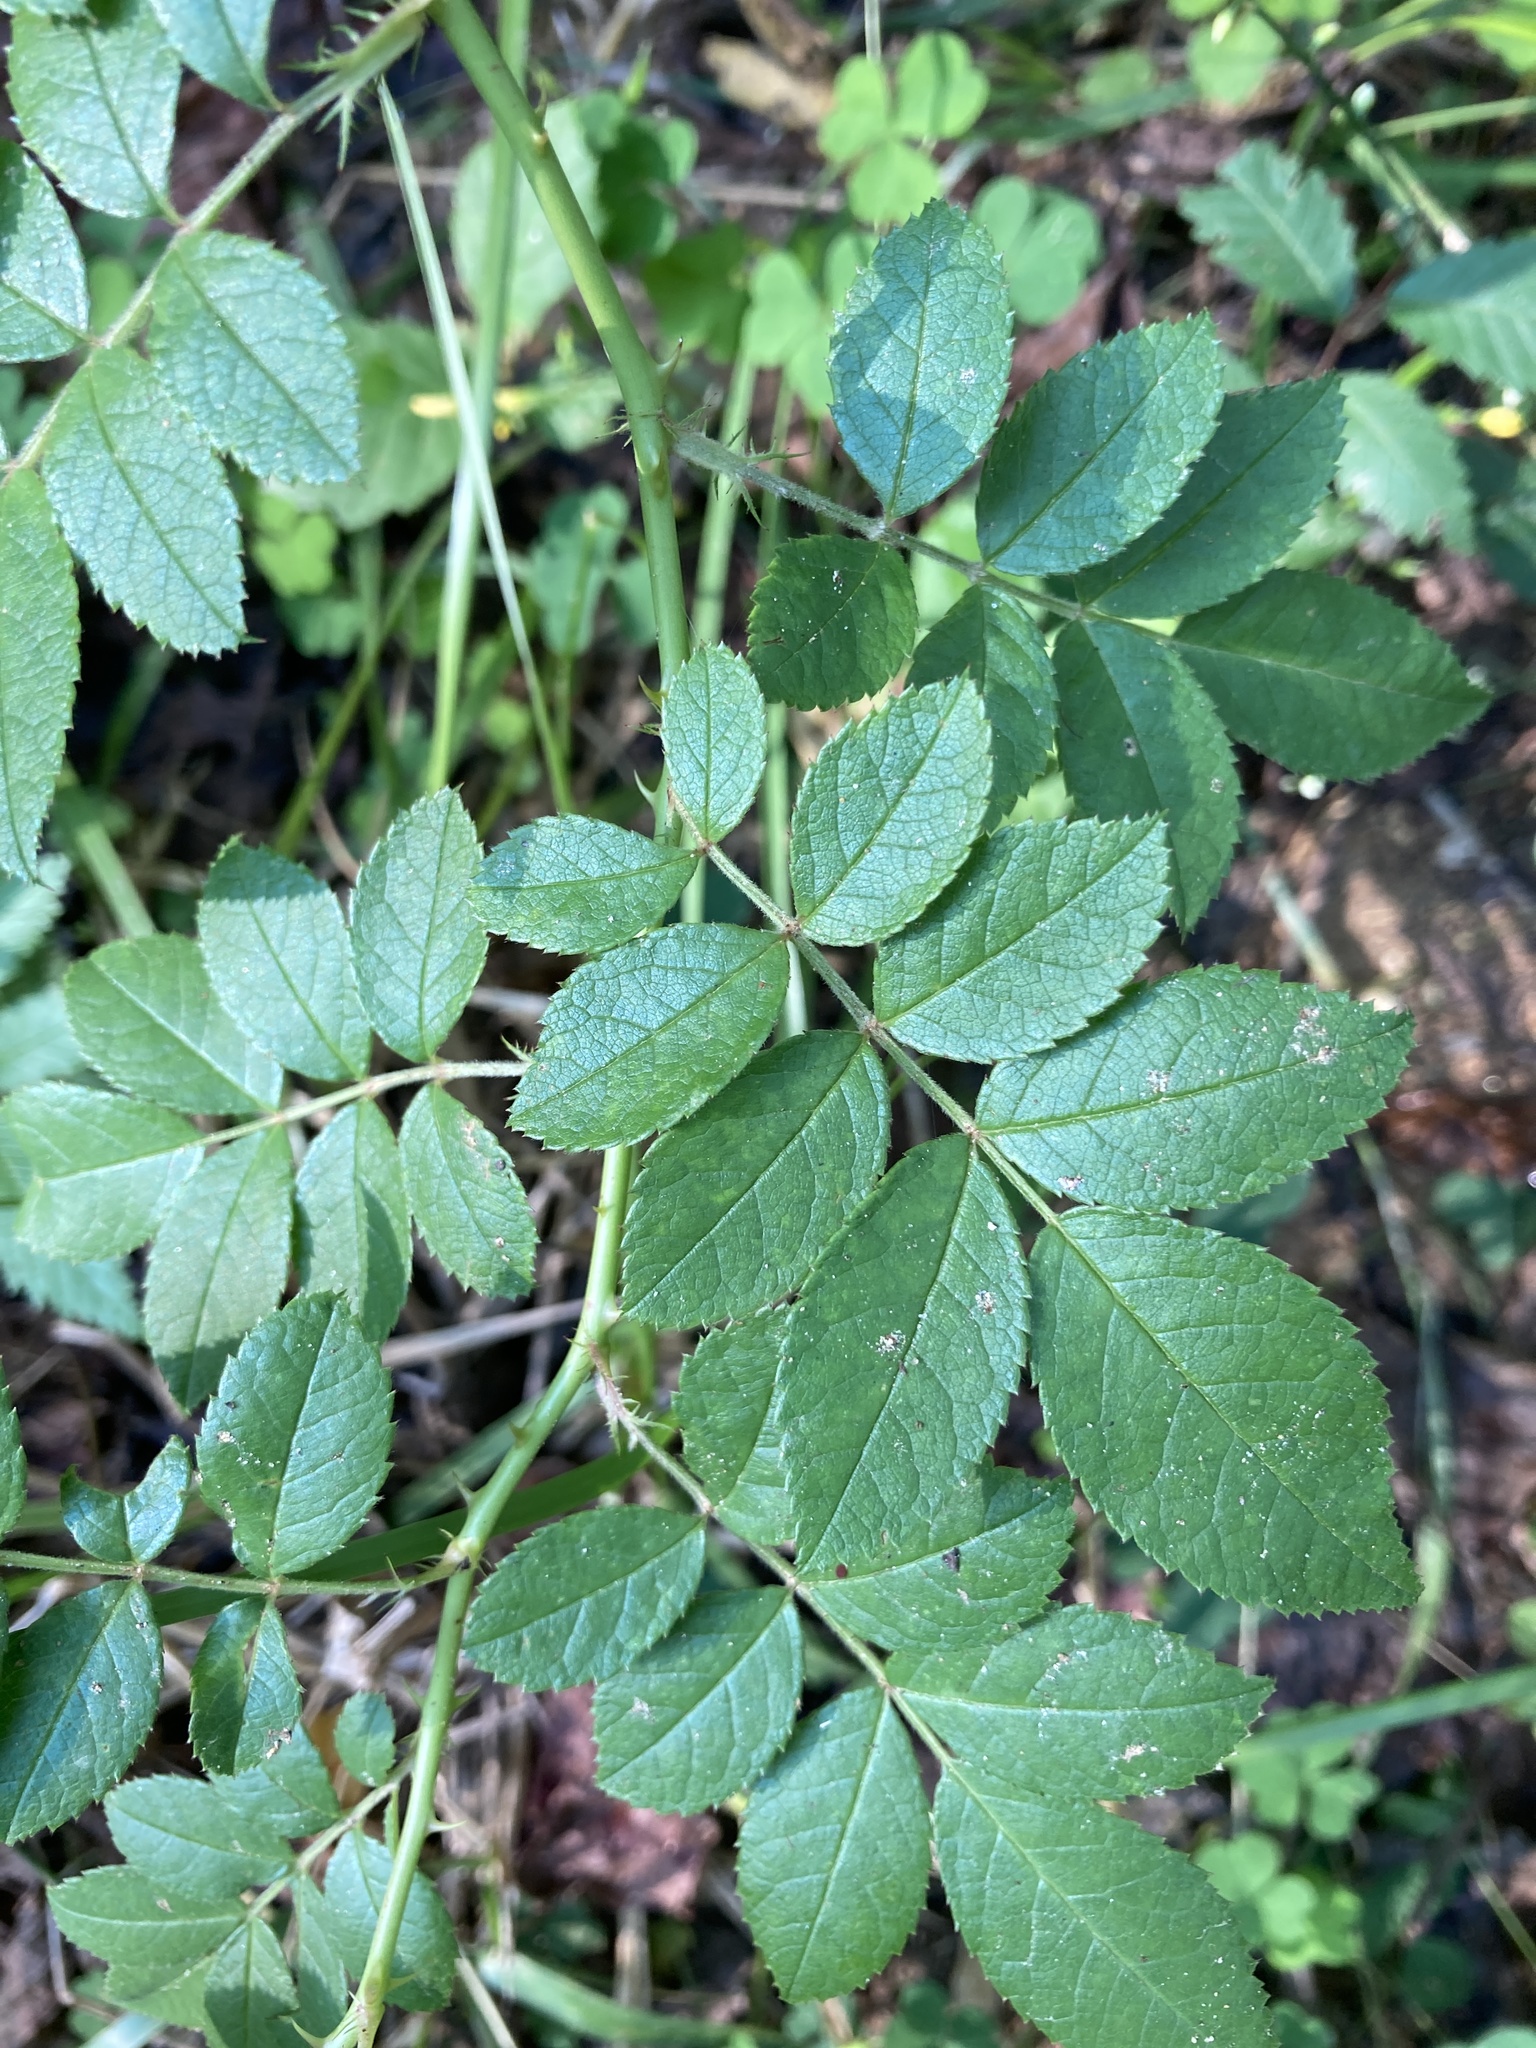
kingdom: Plantae
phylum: Tracheophyta
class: Magnoliopsida
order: Rosales
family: Rosaceae
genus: Rosa
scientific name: Rosa multiflora
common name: Multiflora rose
